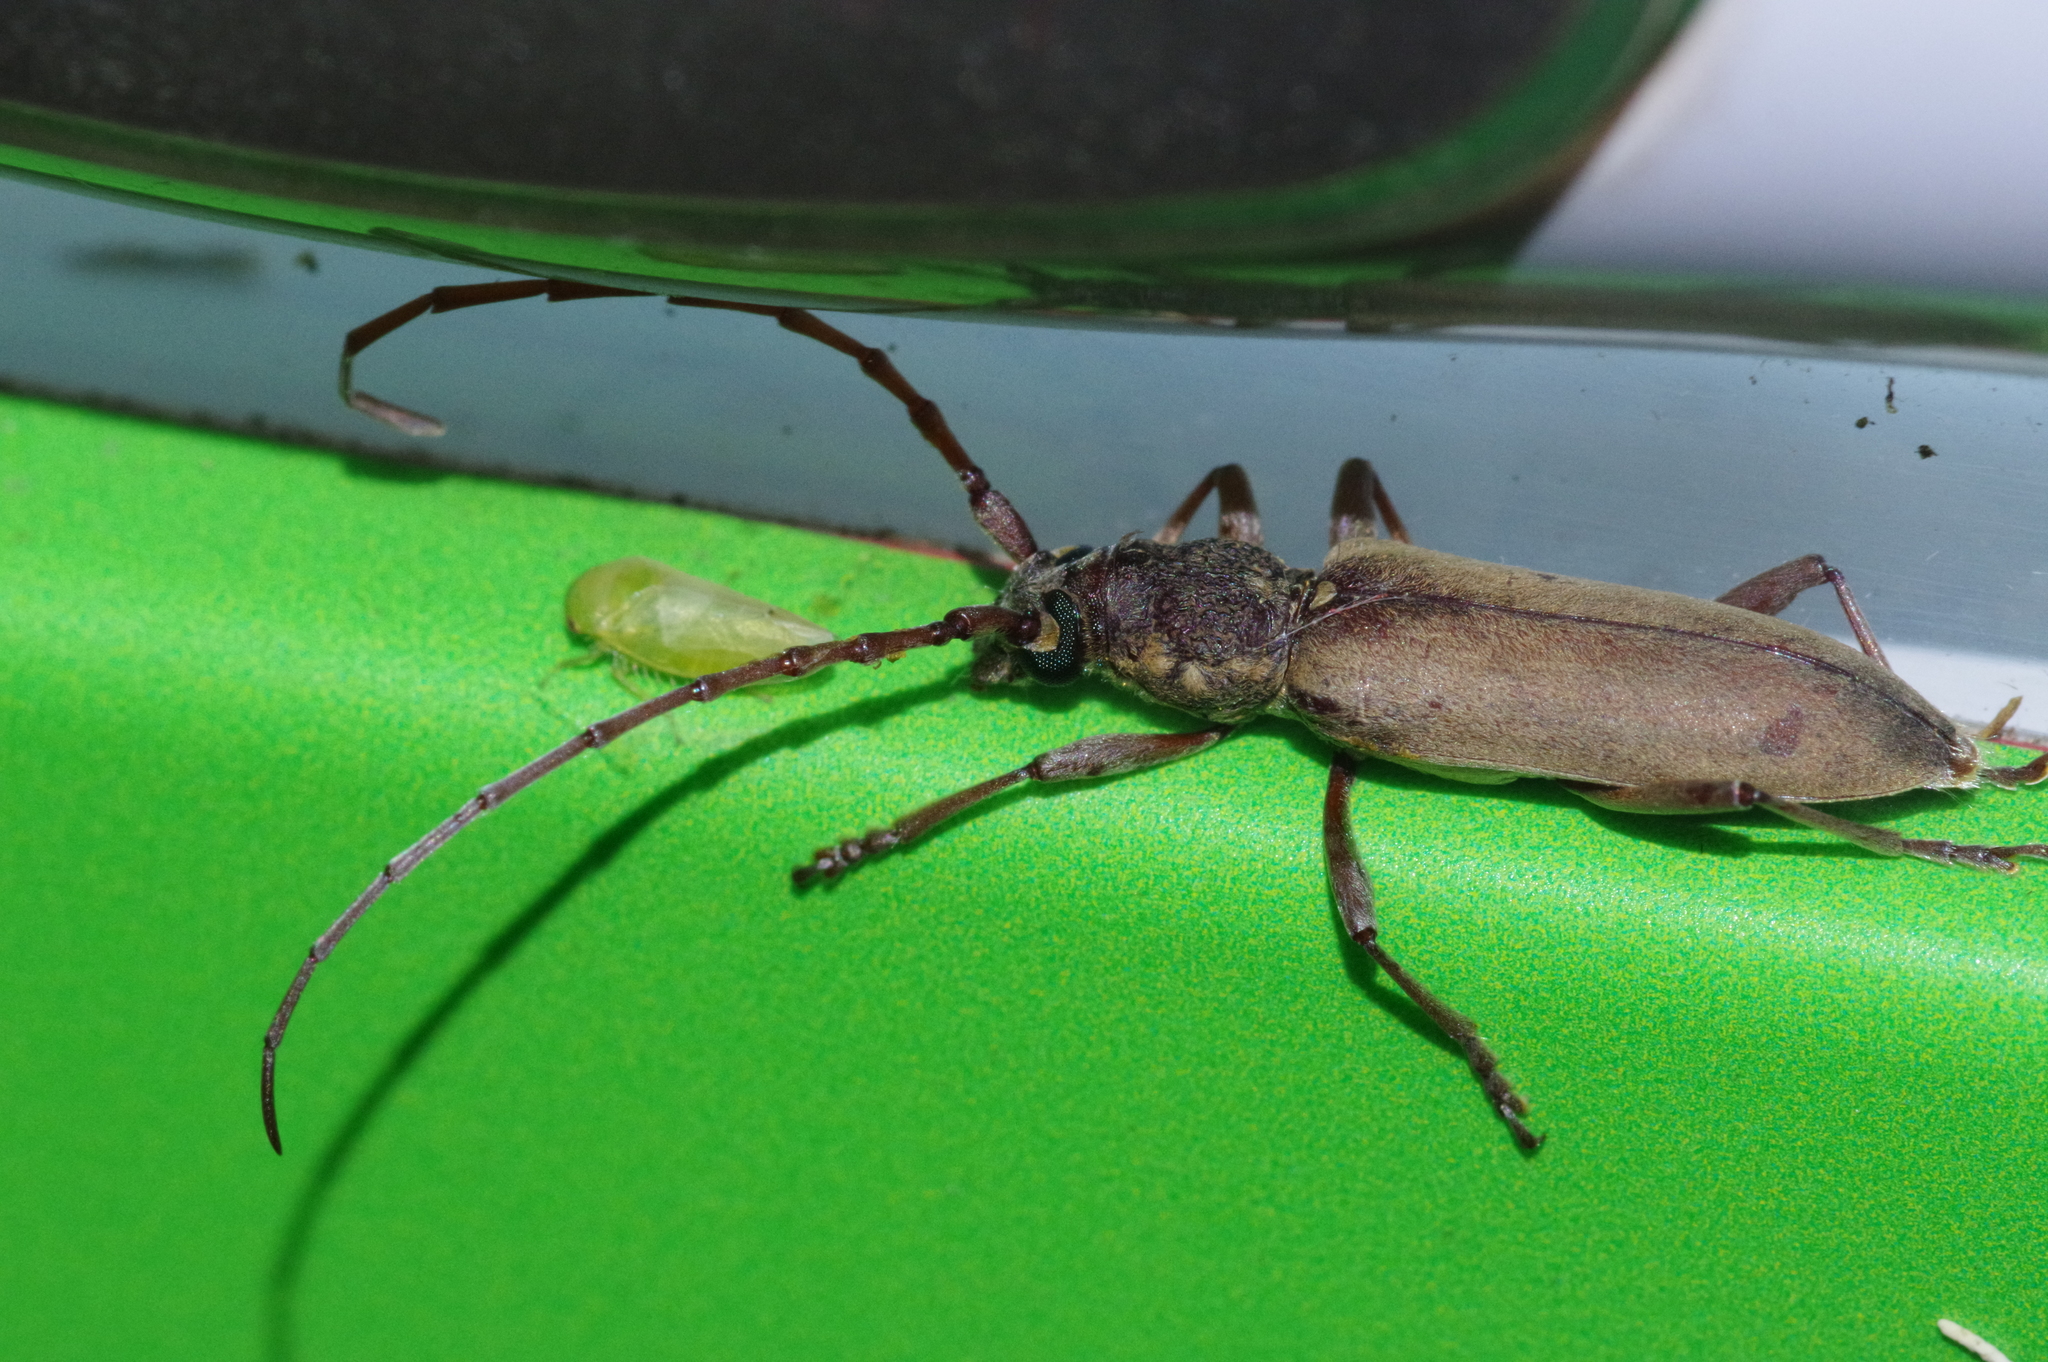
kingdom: Animalia
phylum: Arthropoda
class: Insecta
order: Coleoptera
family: Cerambycidae
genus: Margites
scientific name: Margites fulvidus
